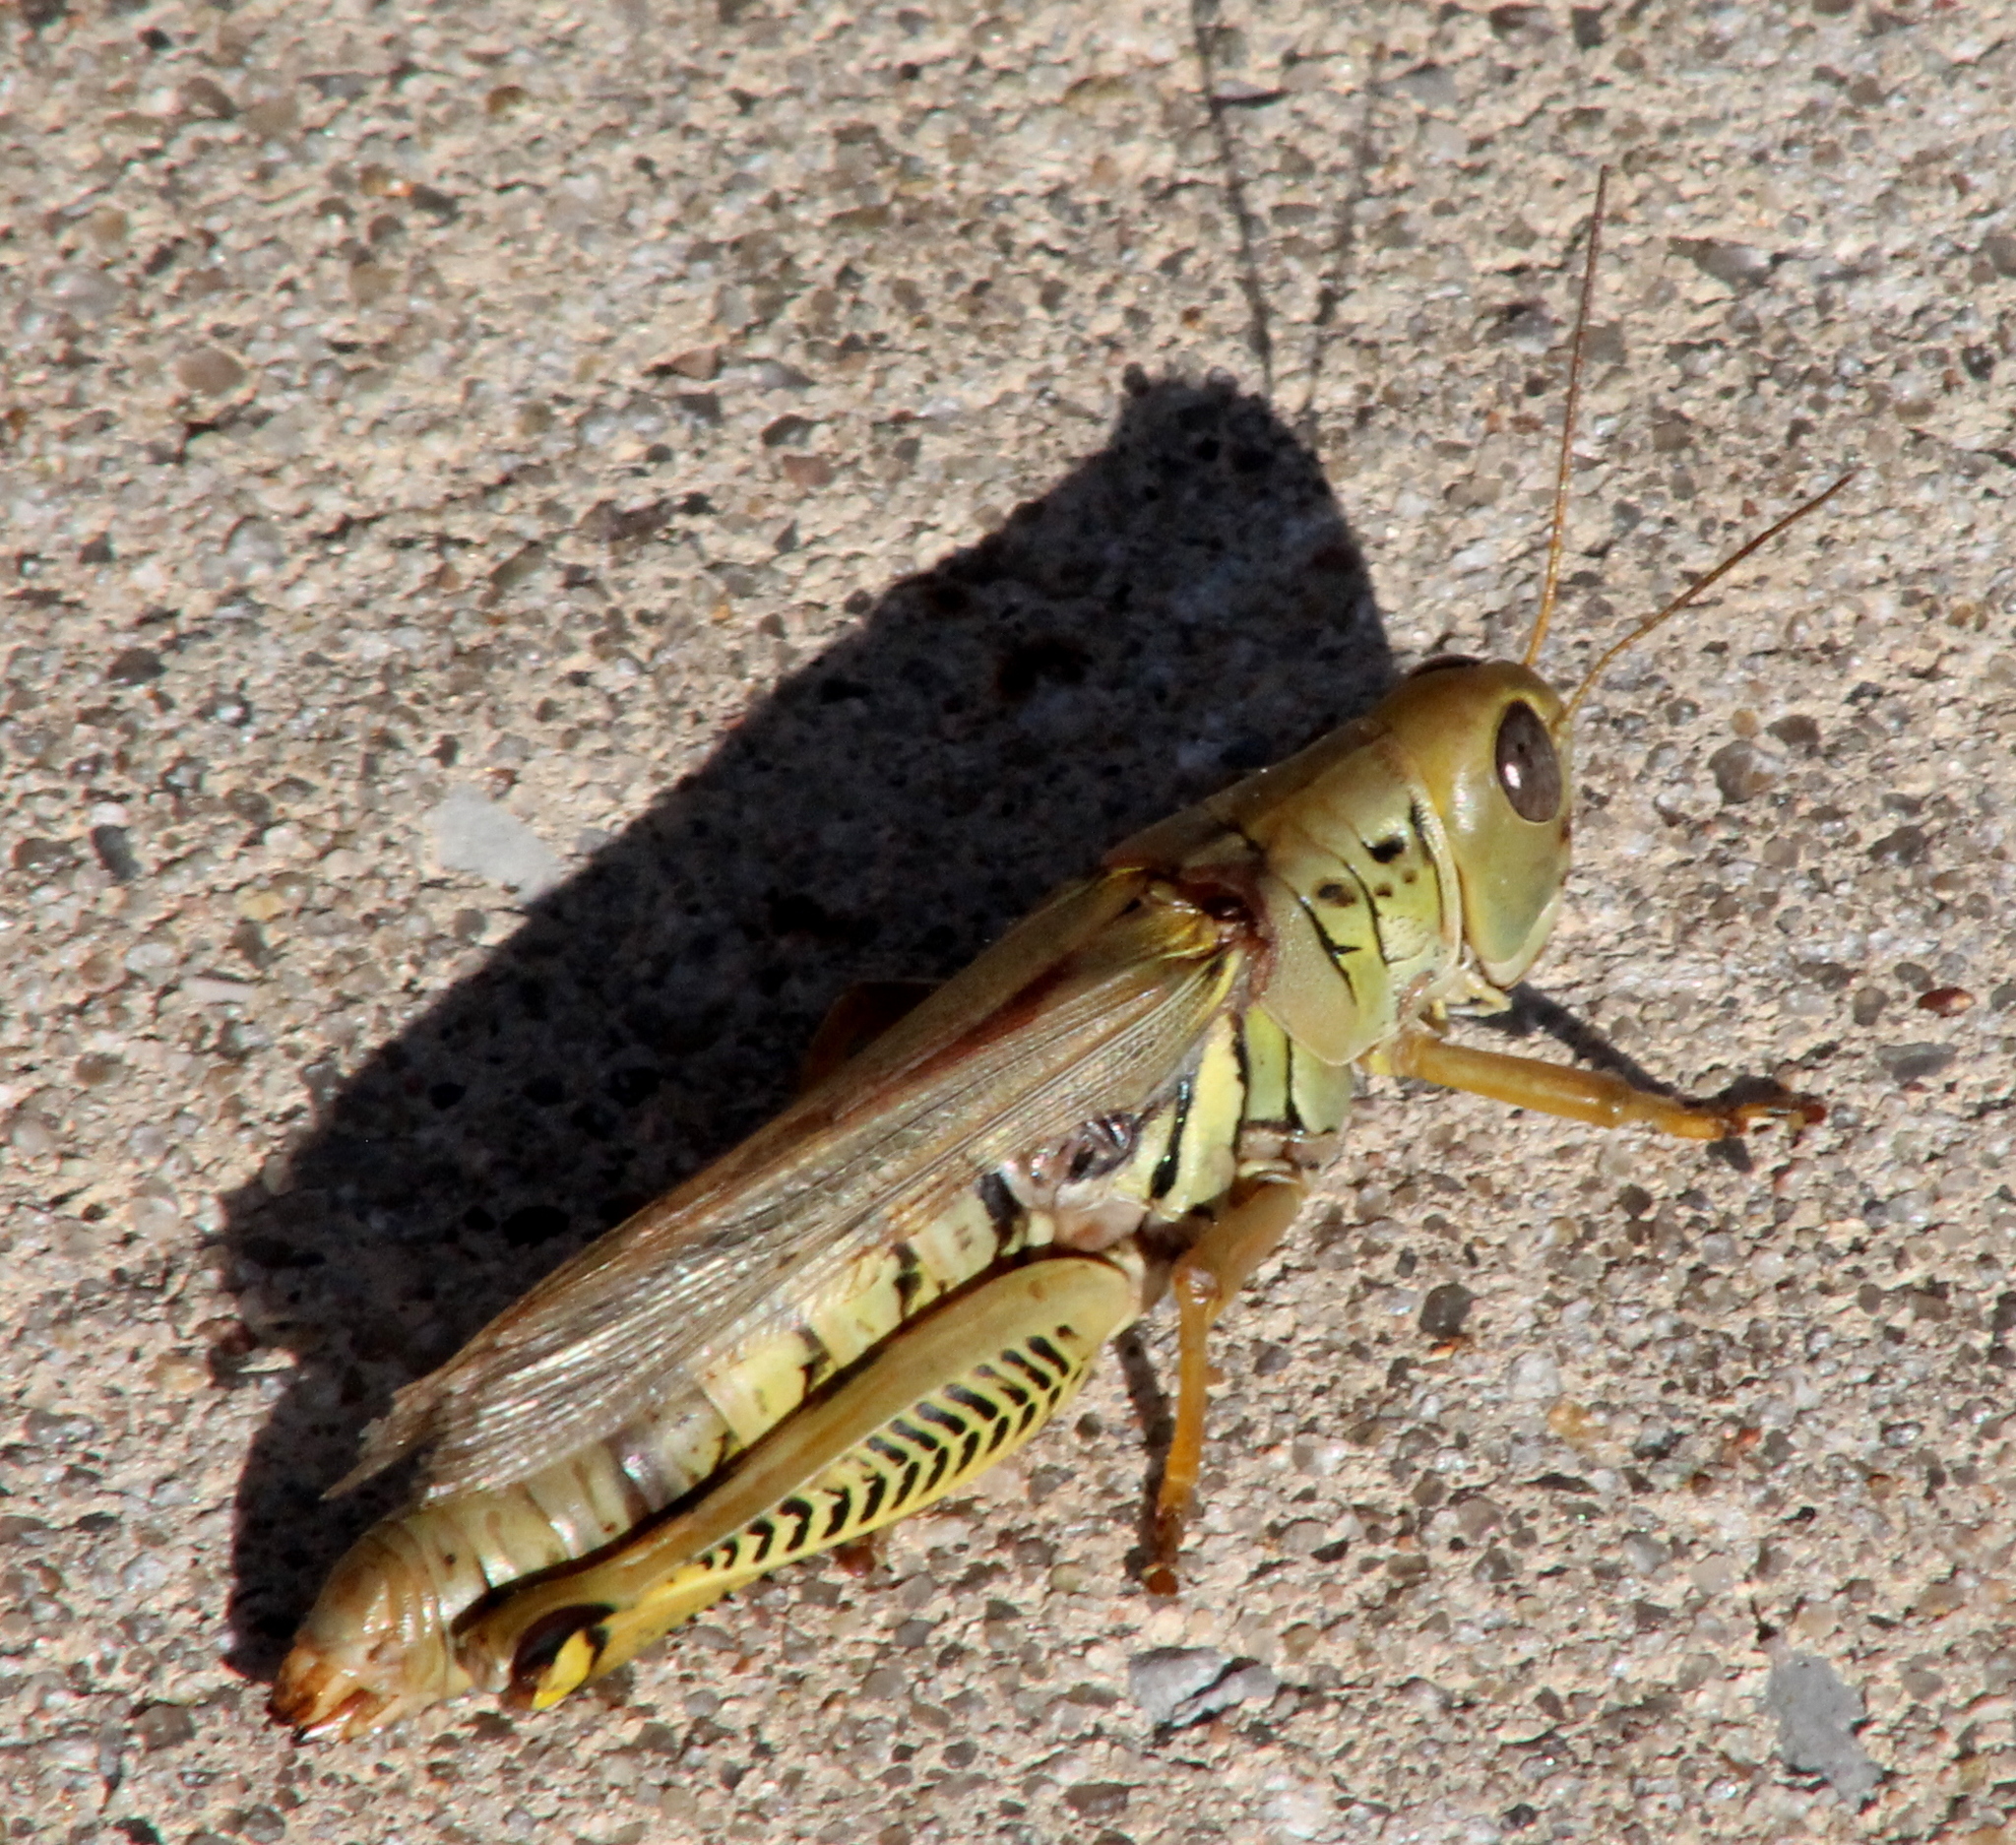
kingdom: Animalia
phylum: Arthropoda
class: Insecta
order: Orthoptera
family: Acrididae
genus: Melanoplus
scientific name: Melanoplus differentialis
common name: Differential grasshopper
